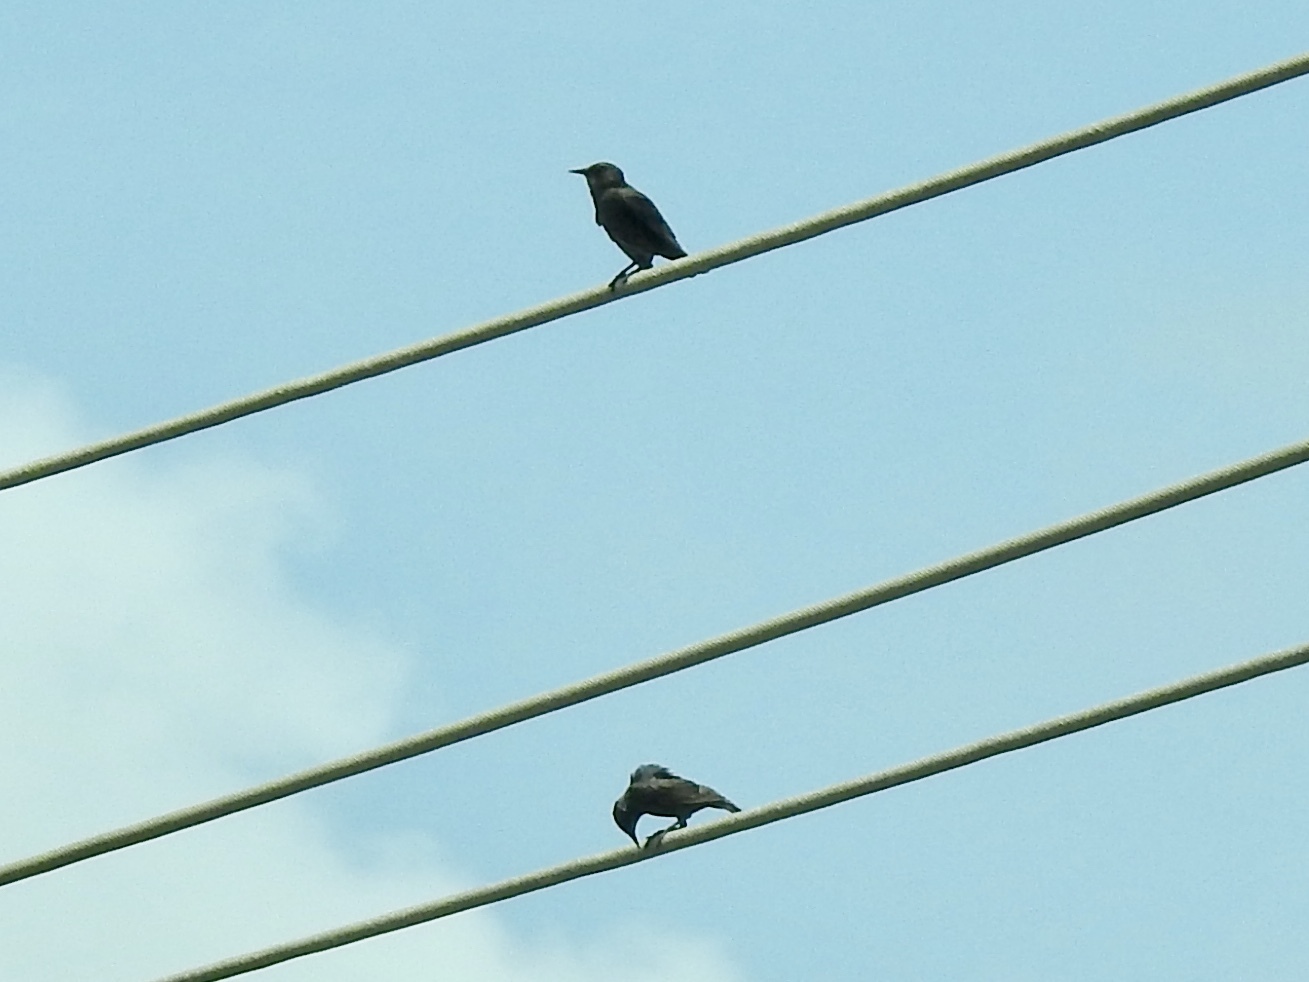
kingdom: Animalia
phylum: Chordata
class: Aves
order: Passeriformes
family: Sturnidae
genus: Sturnus
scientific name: Sturnus vulgaris
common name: Common starling
